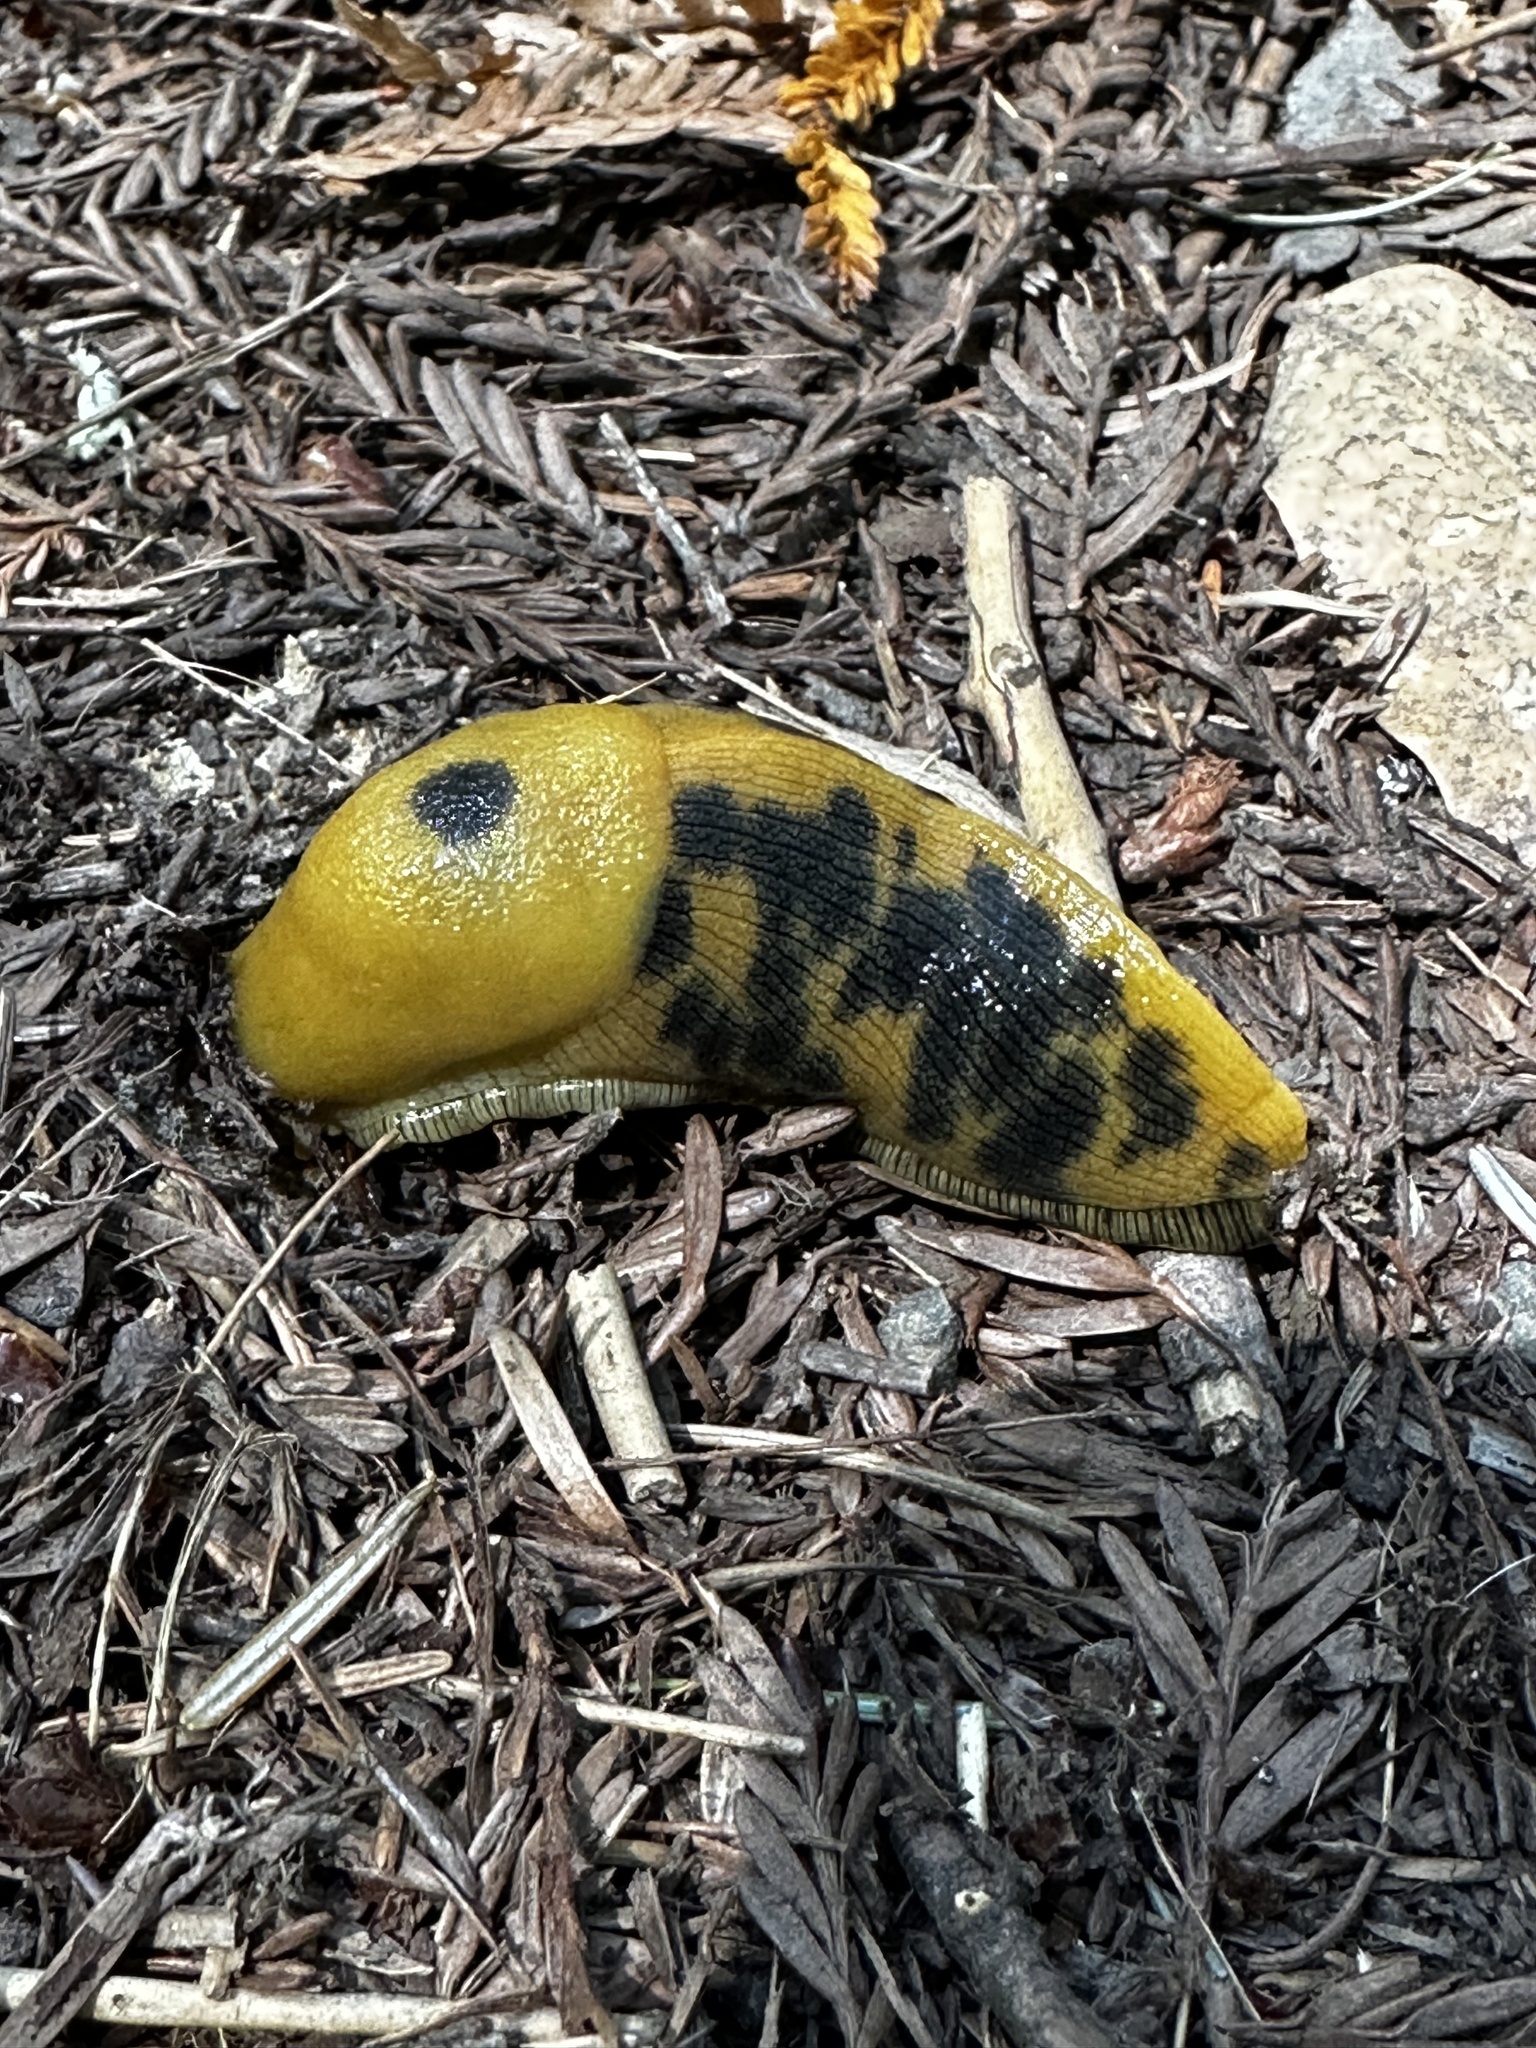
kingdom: Animalia
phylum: Mollusca
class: Gastropoda
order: Stylommatophora
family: Ariolimacidae
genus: Ariolimax
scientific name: Ariolimax buttoni
